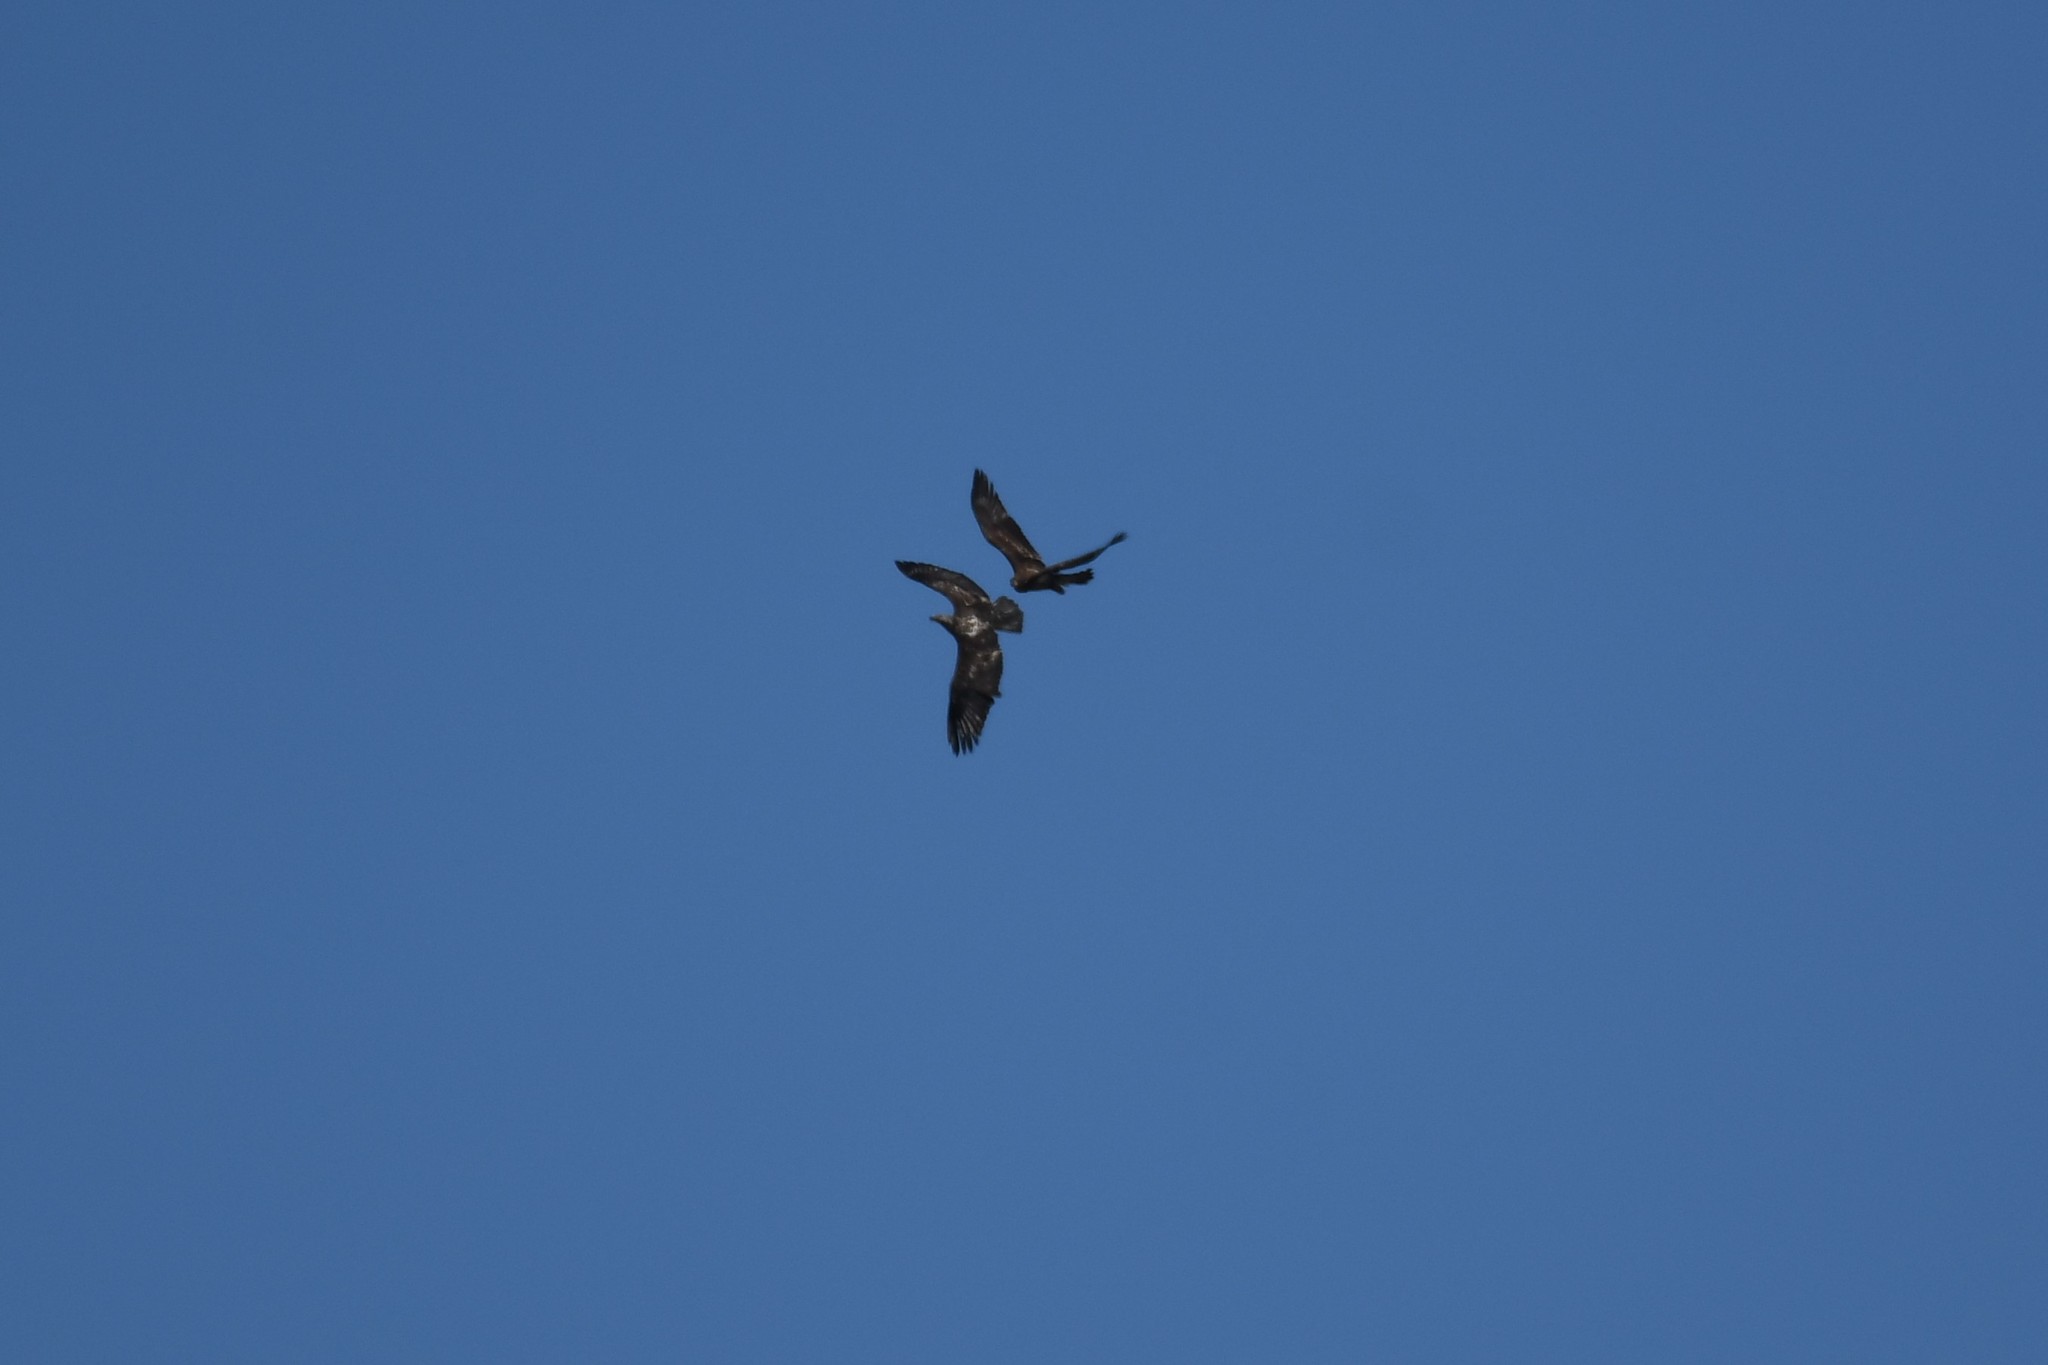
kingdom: Animalia
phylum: Chordata
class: Aves
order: Accipitriformes
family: Accipitridae
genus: Haliaeetus
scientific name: Haliaeetus leucocephalus
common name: Bald eagle
